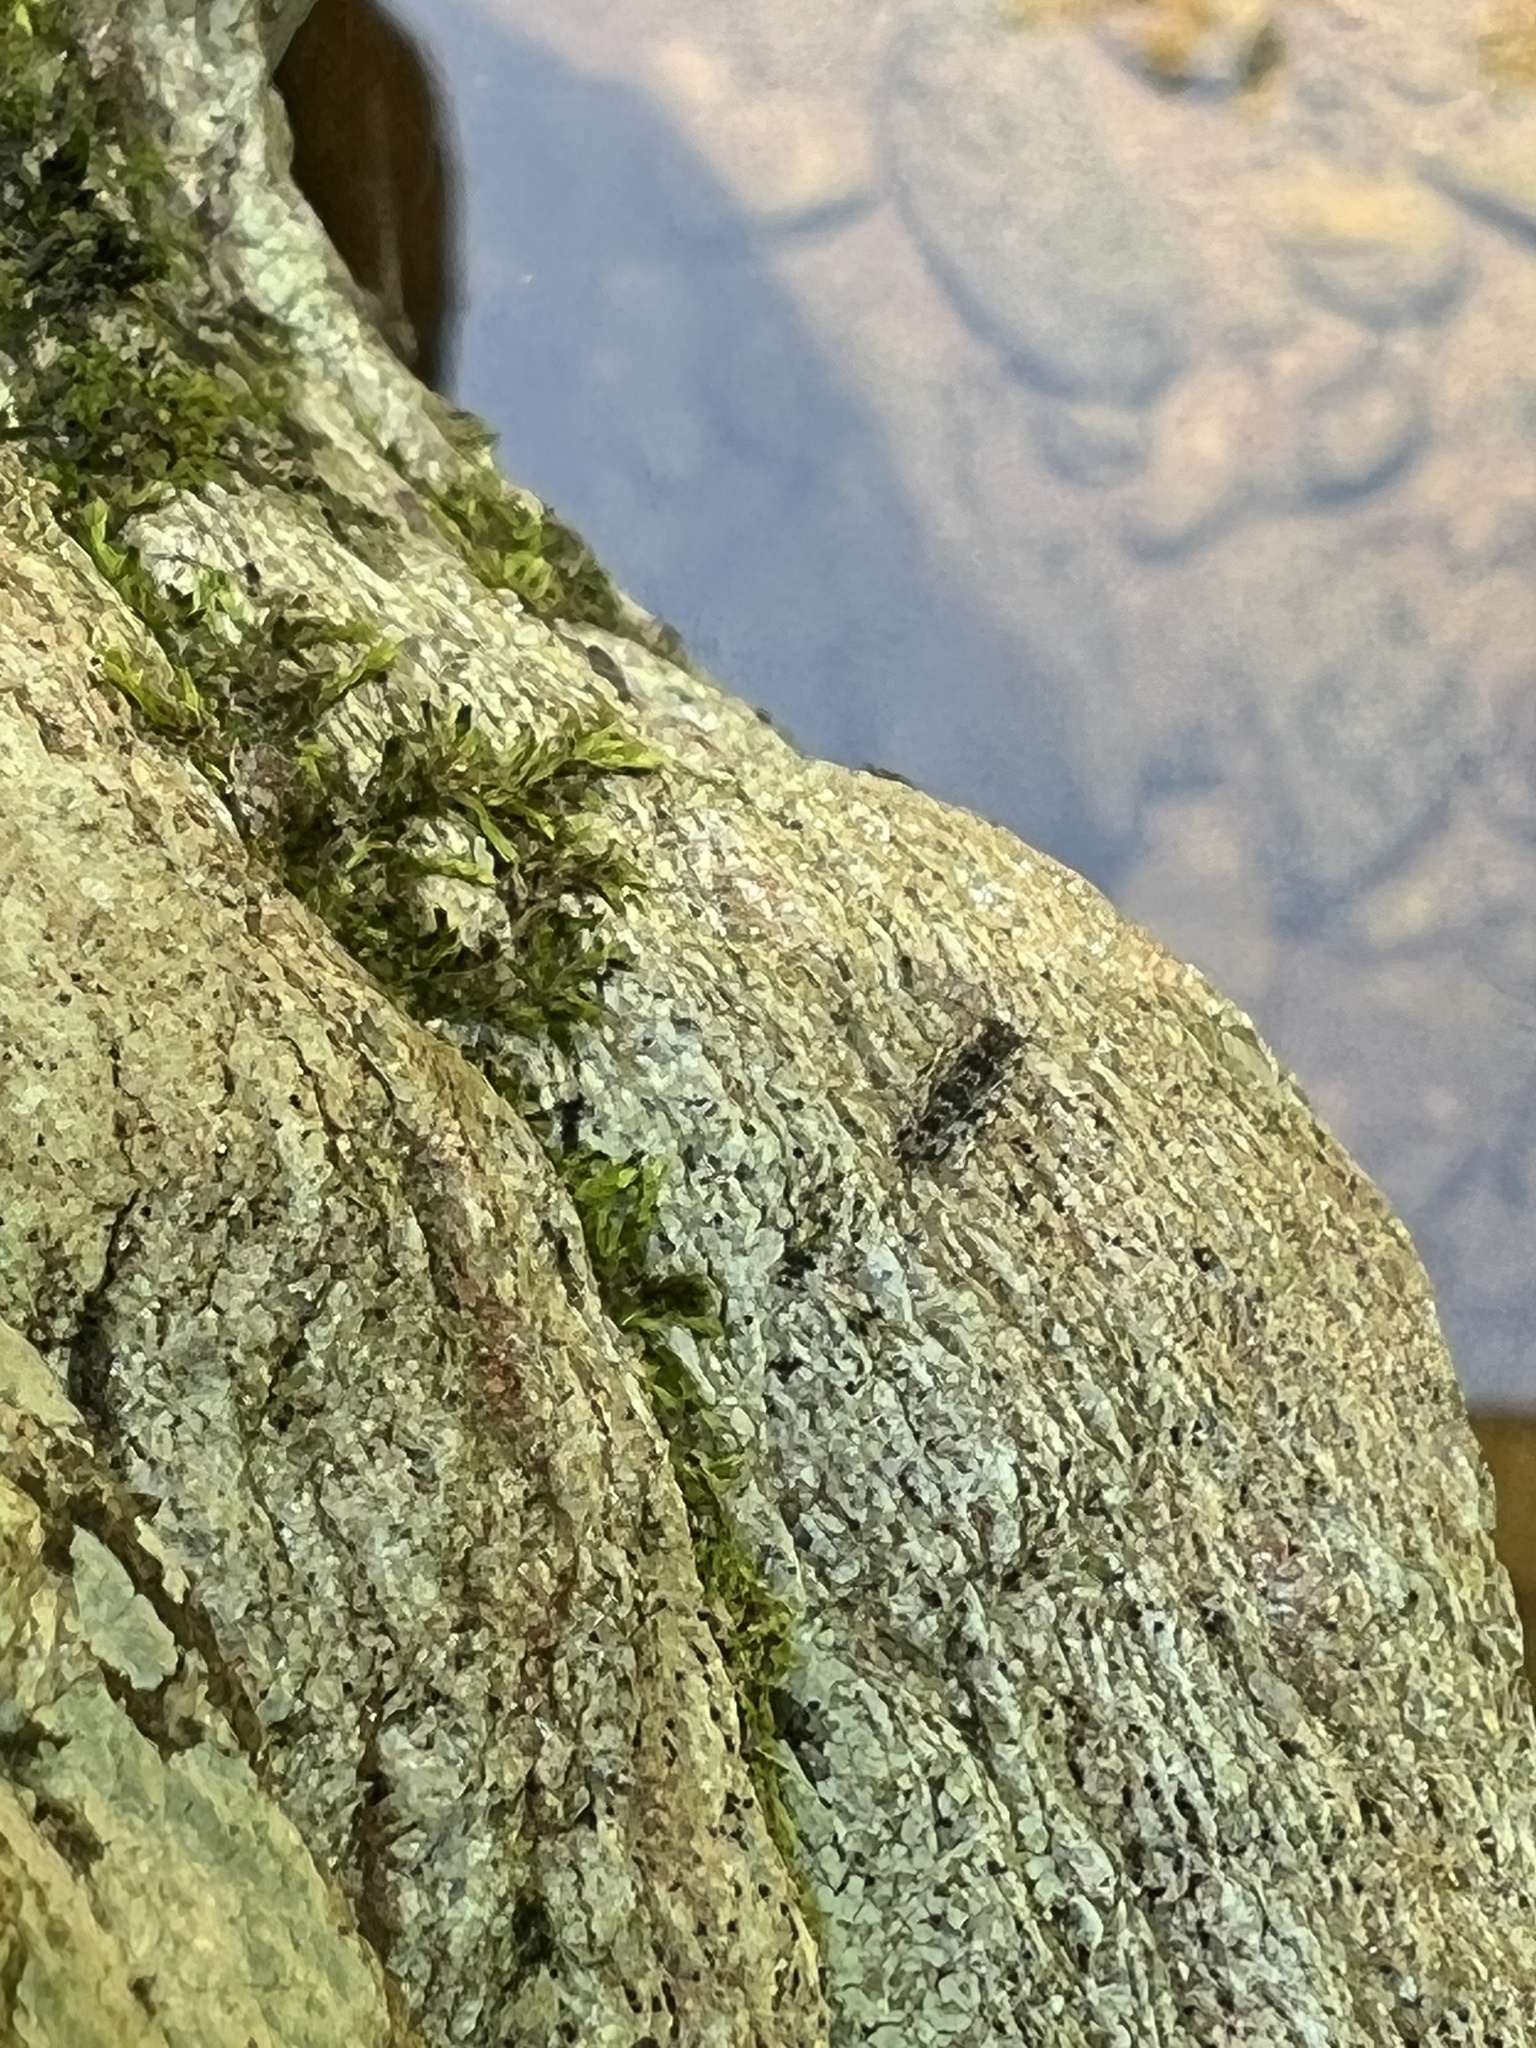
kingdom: Animalia
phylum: Arthropoda
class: Insecta
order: Psocodea
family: Amphientomidae
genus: Stimulopalpus
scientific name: Stimulopalpus japonicus
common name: Tropical bark louse
